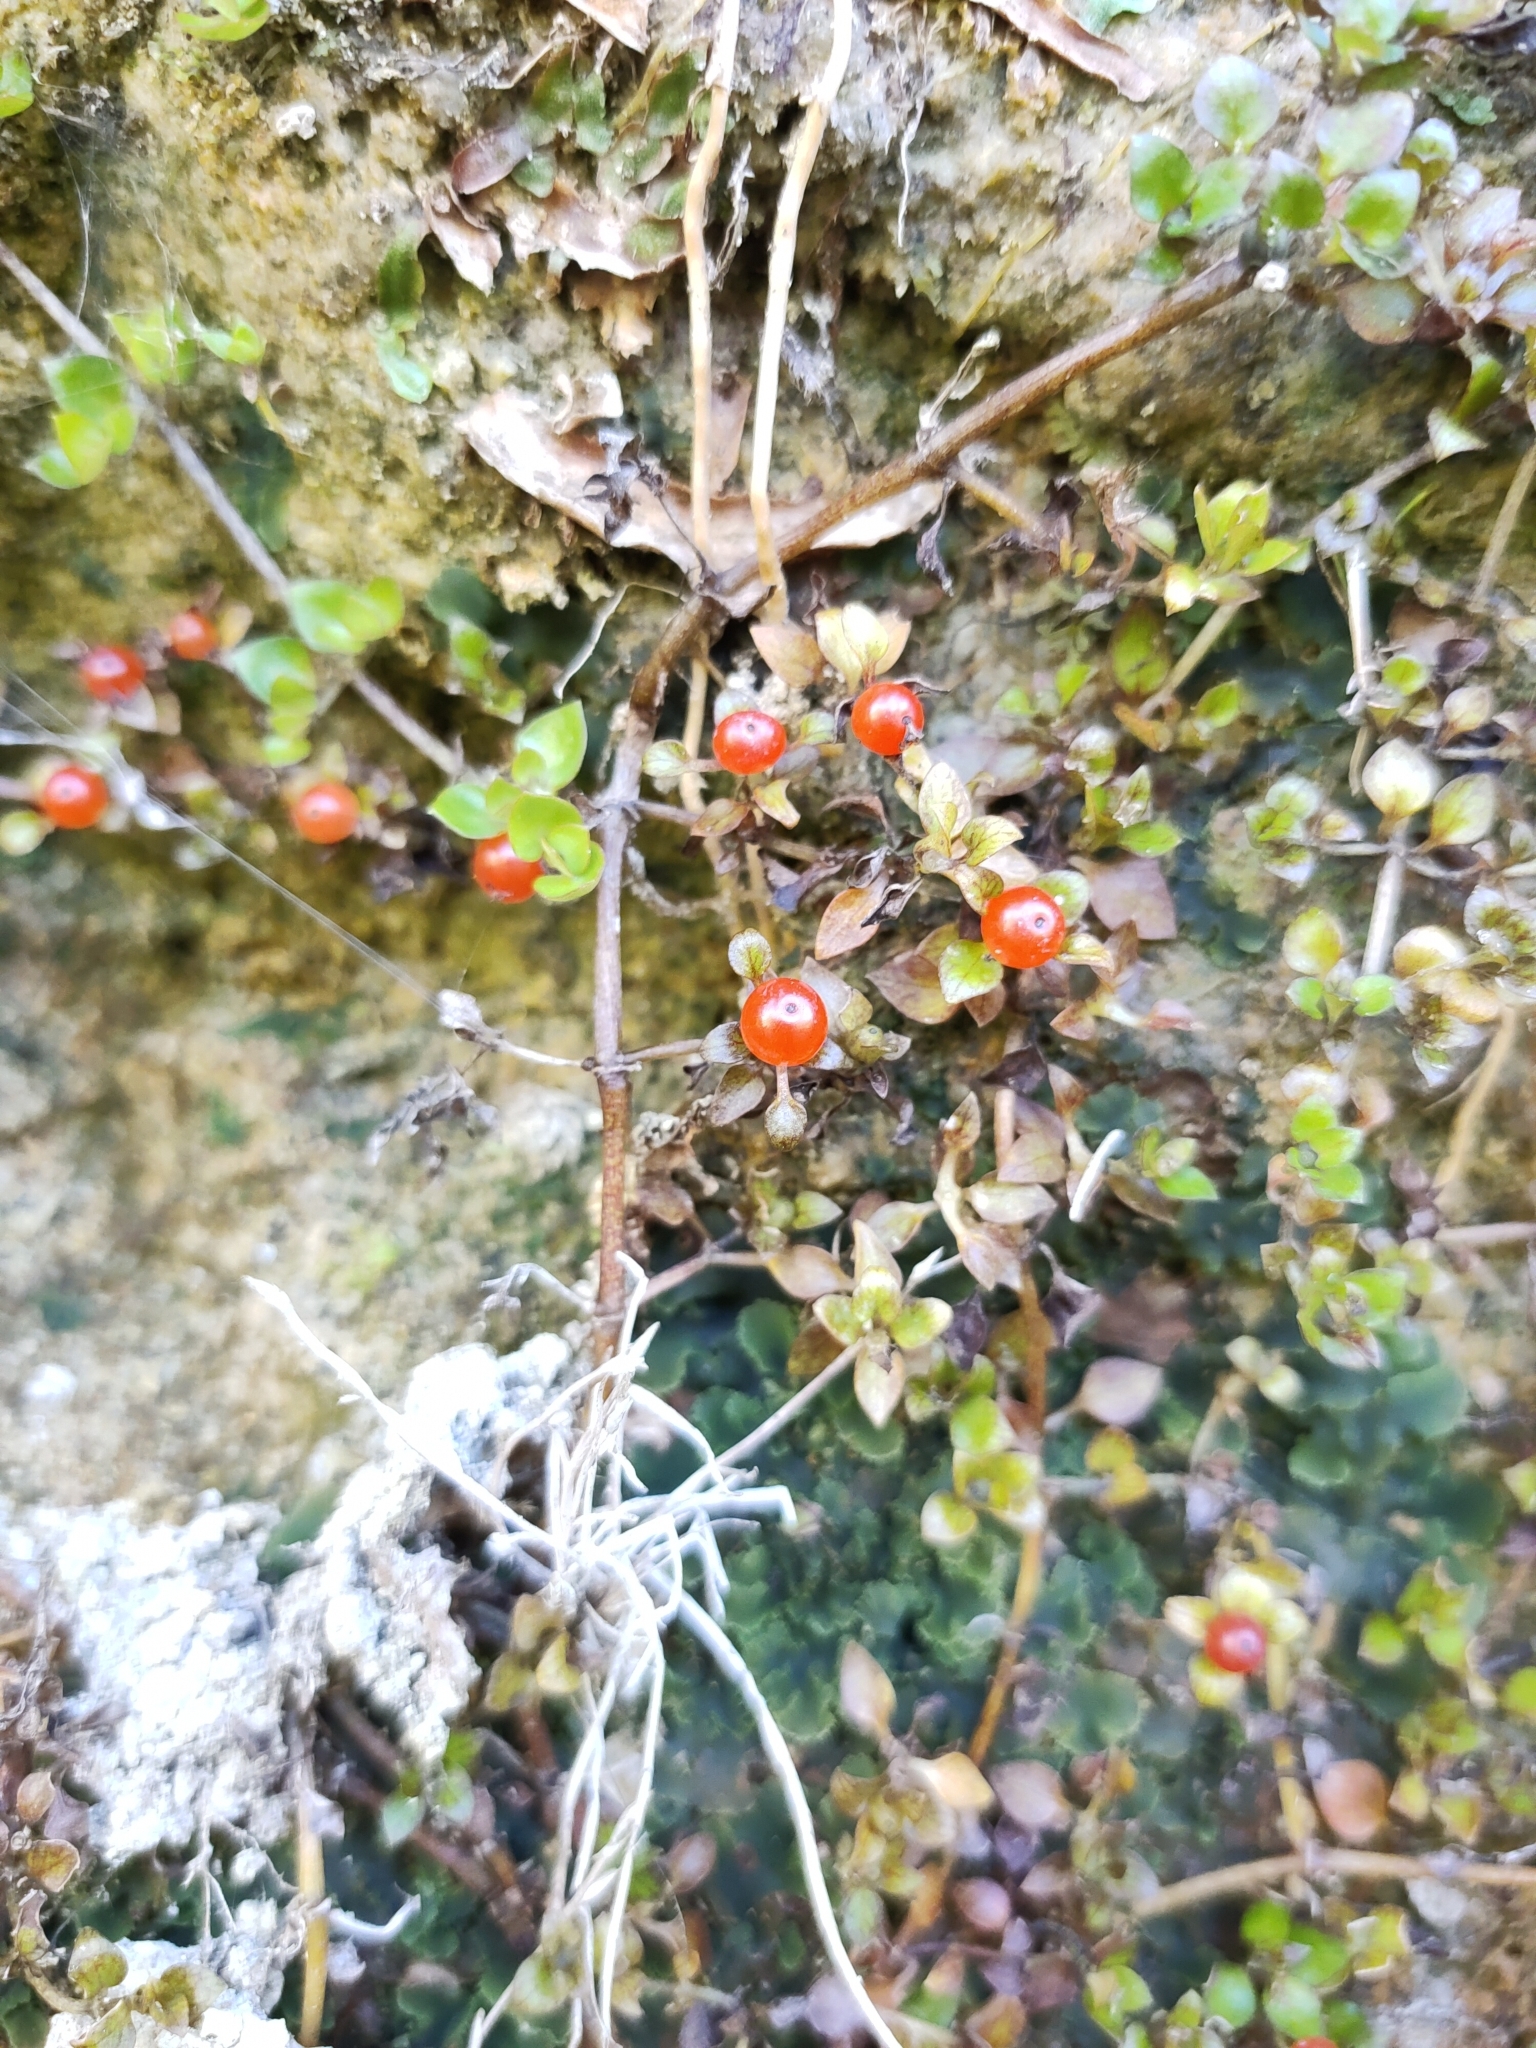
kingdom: Plantae
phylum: Tracheophyta
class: Magnoliopsida
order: Gentianales
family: Rubiaceae
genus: Nertera
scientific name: Nertera granadensis
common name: Beadplant
